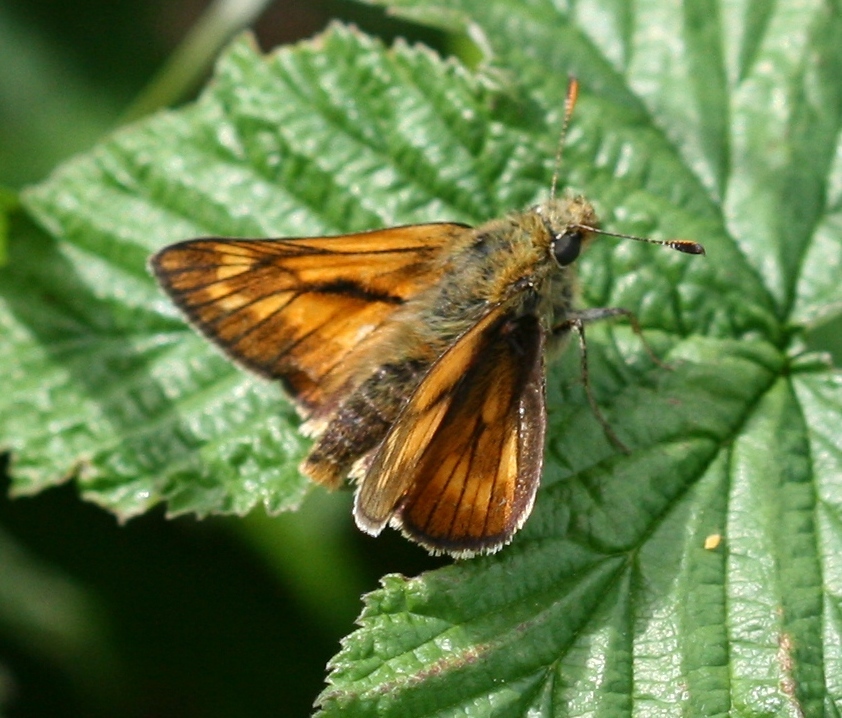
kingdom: Animalia
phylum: Arthropoda
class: Insecta
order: Lepidoptera
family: Hesperiidae
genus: Ochlodes
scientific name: Ochlodes venata
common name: Large skipper
